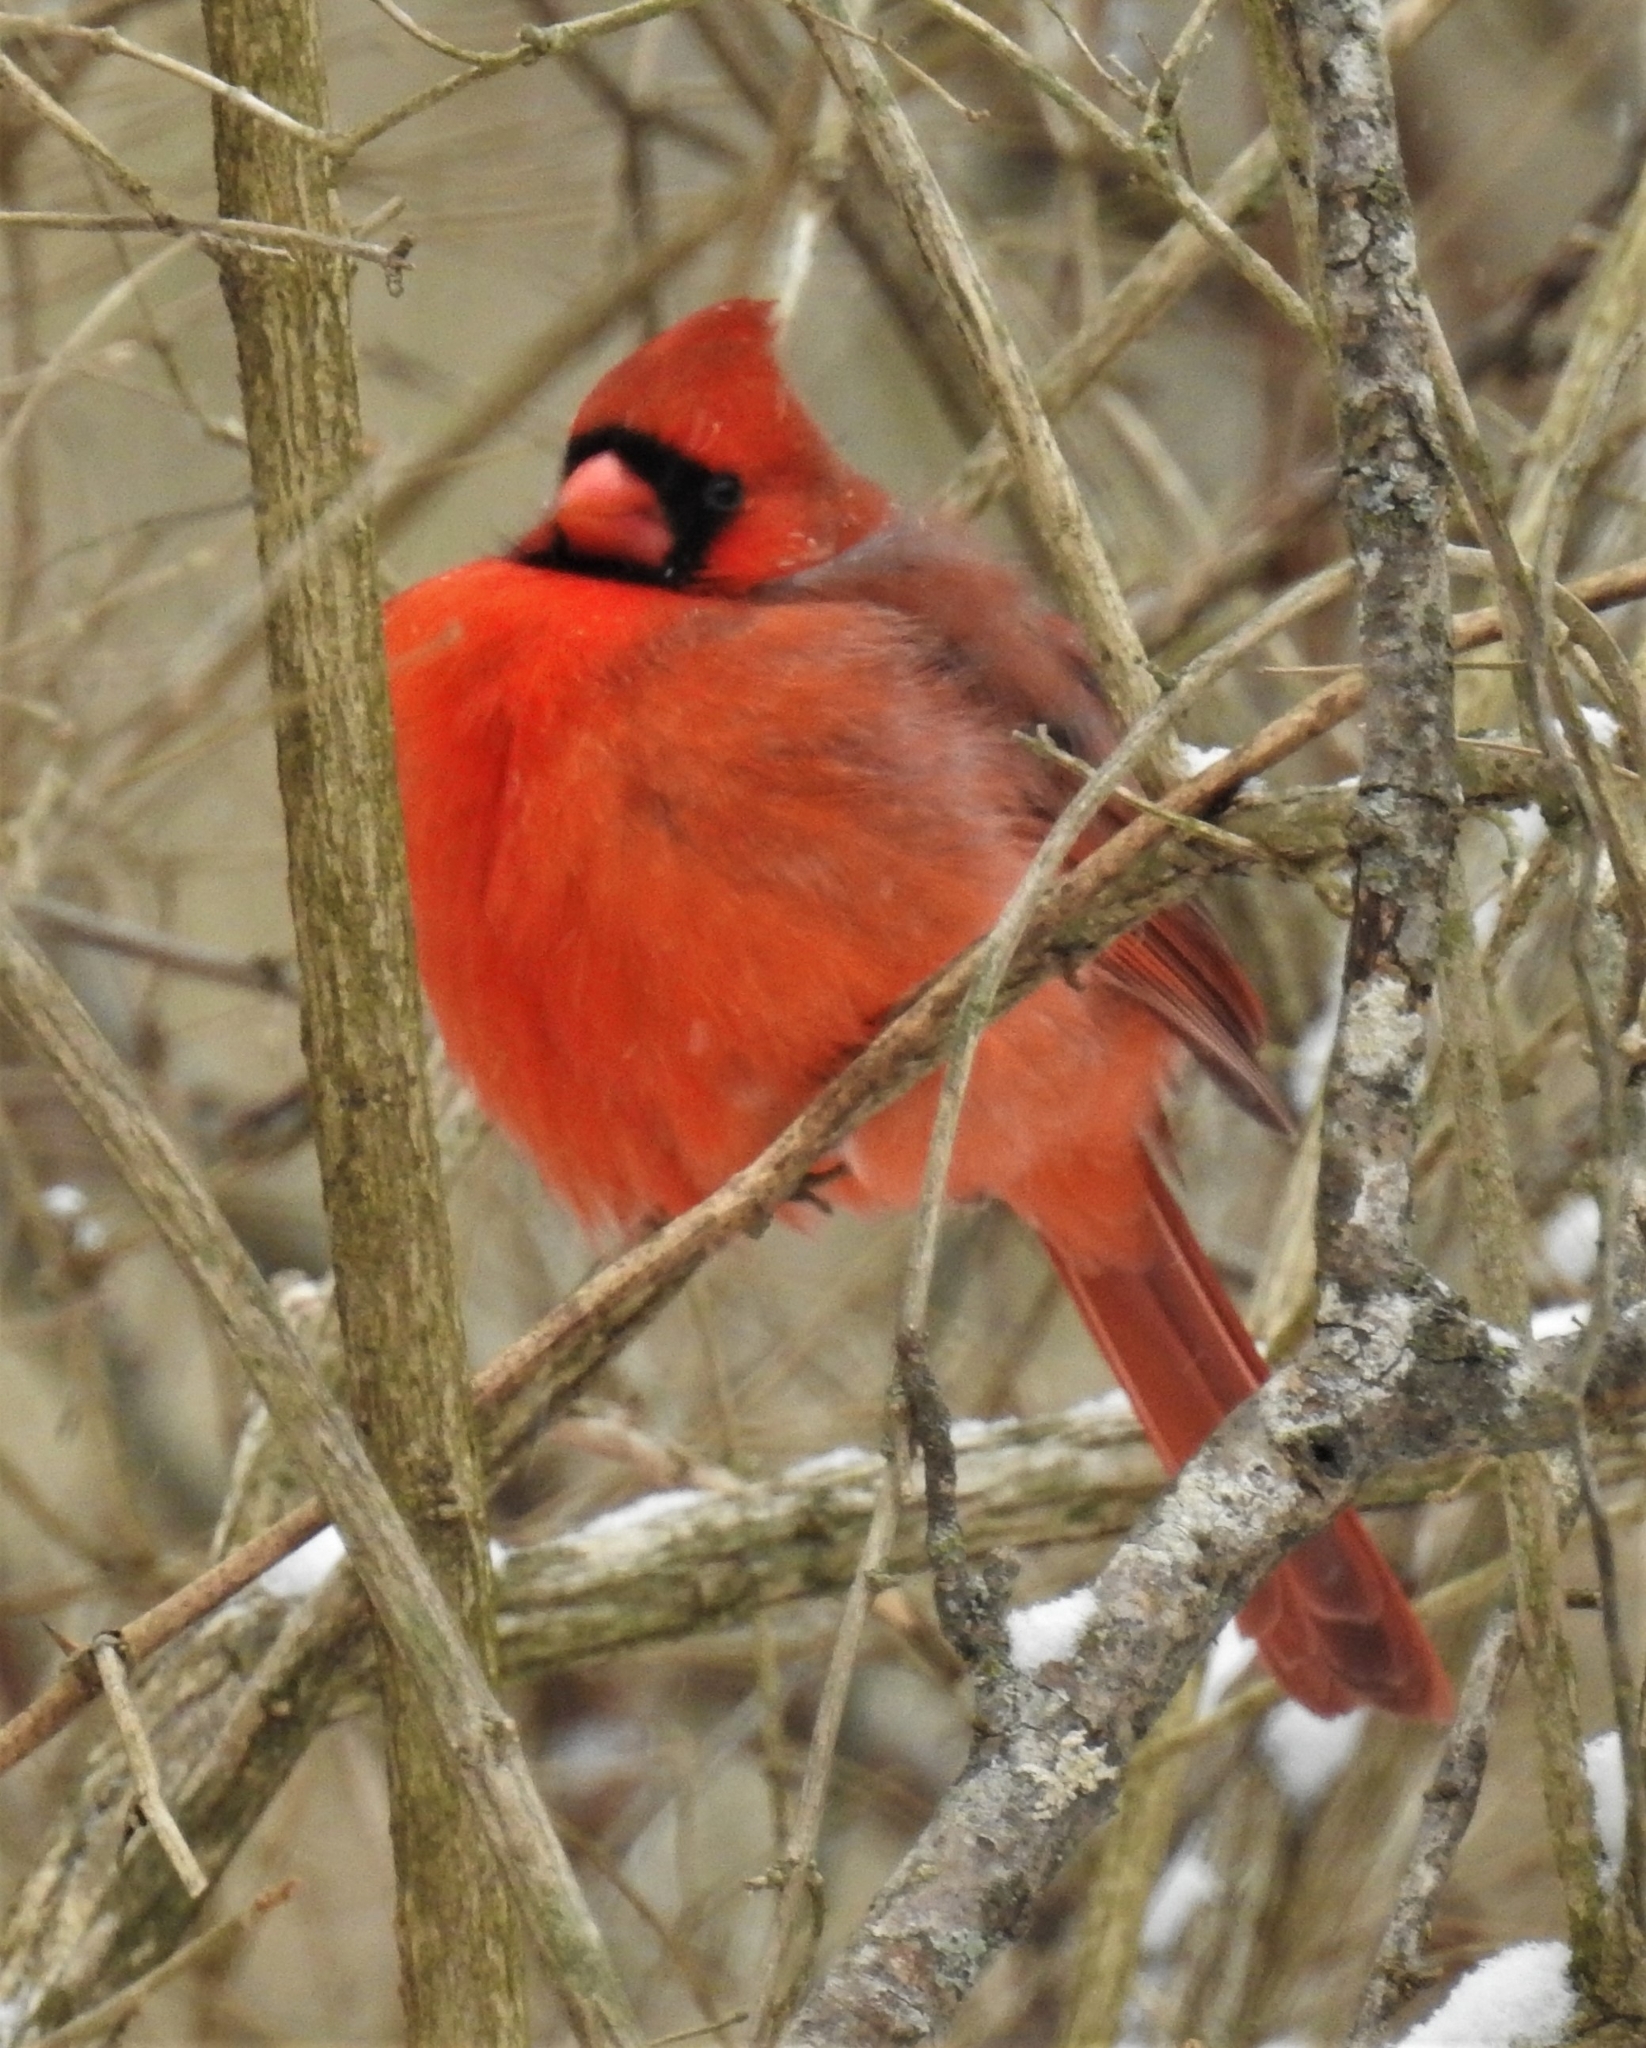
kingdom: Animalia
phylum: Chordata
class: Aves
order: Passeriformes
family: Cardinalidae
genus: Cardinalis
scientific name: Cardinalis cardinalis
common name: Northern cardinal
